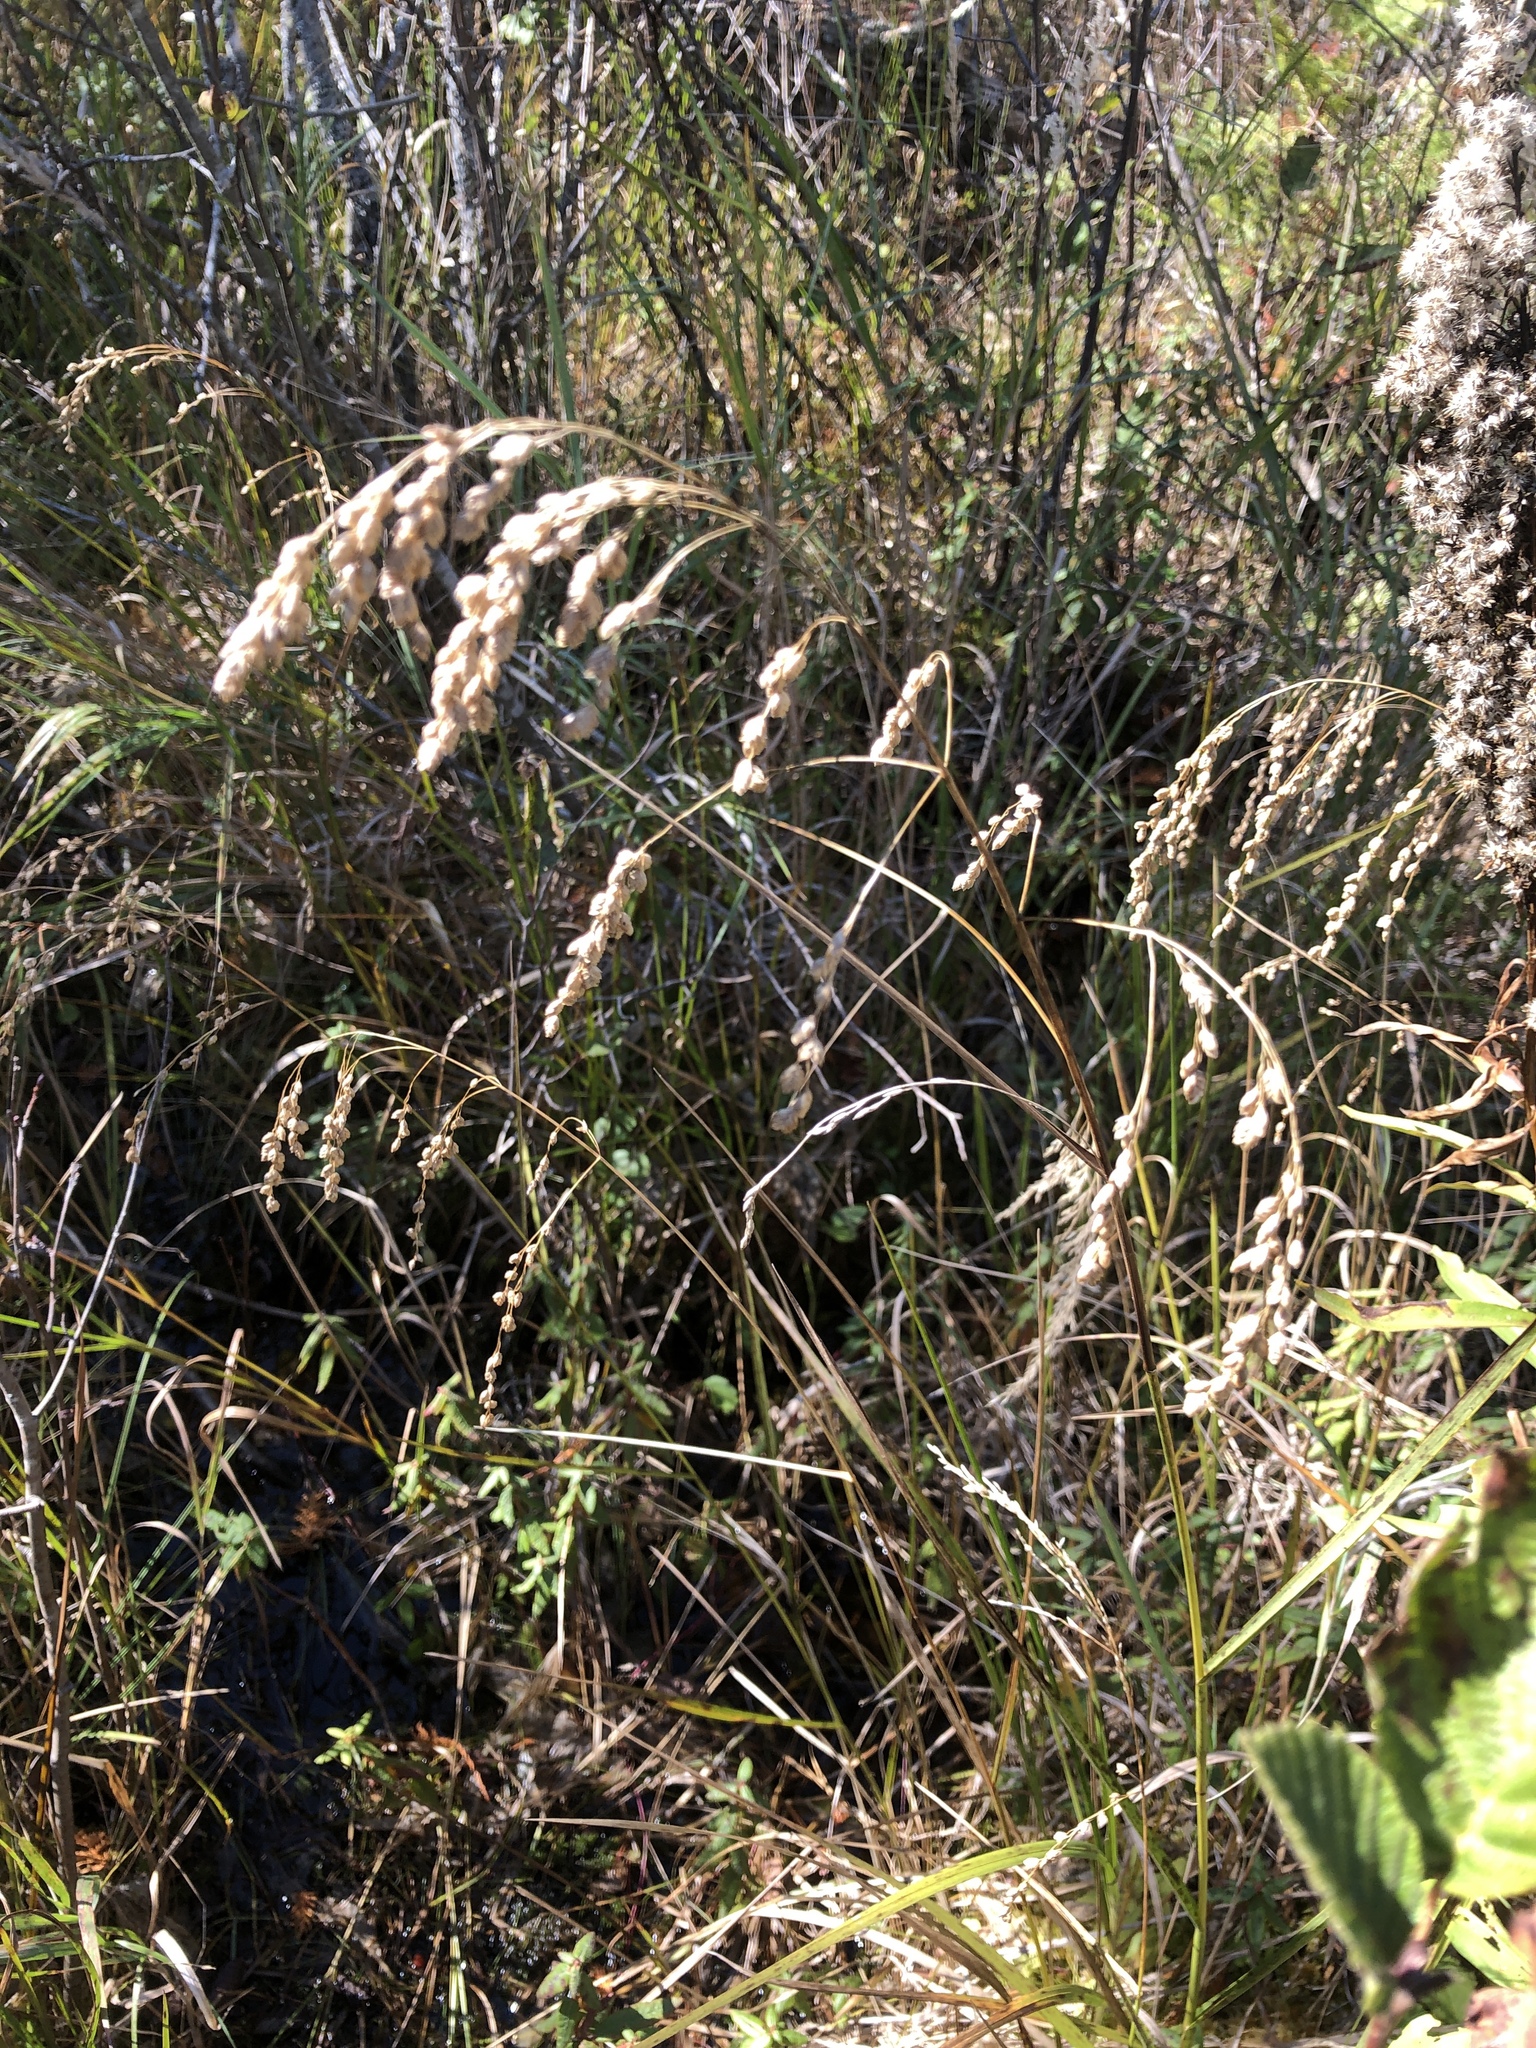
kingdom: Plantae
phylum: Tracheophyta
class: Liliopsida
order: Poales
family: Poaceae
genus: Glyceria
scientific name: Glyceria canadensis
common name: Canada mannagrass
